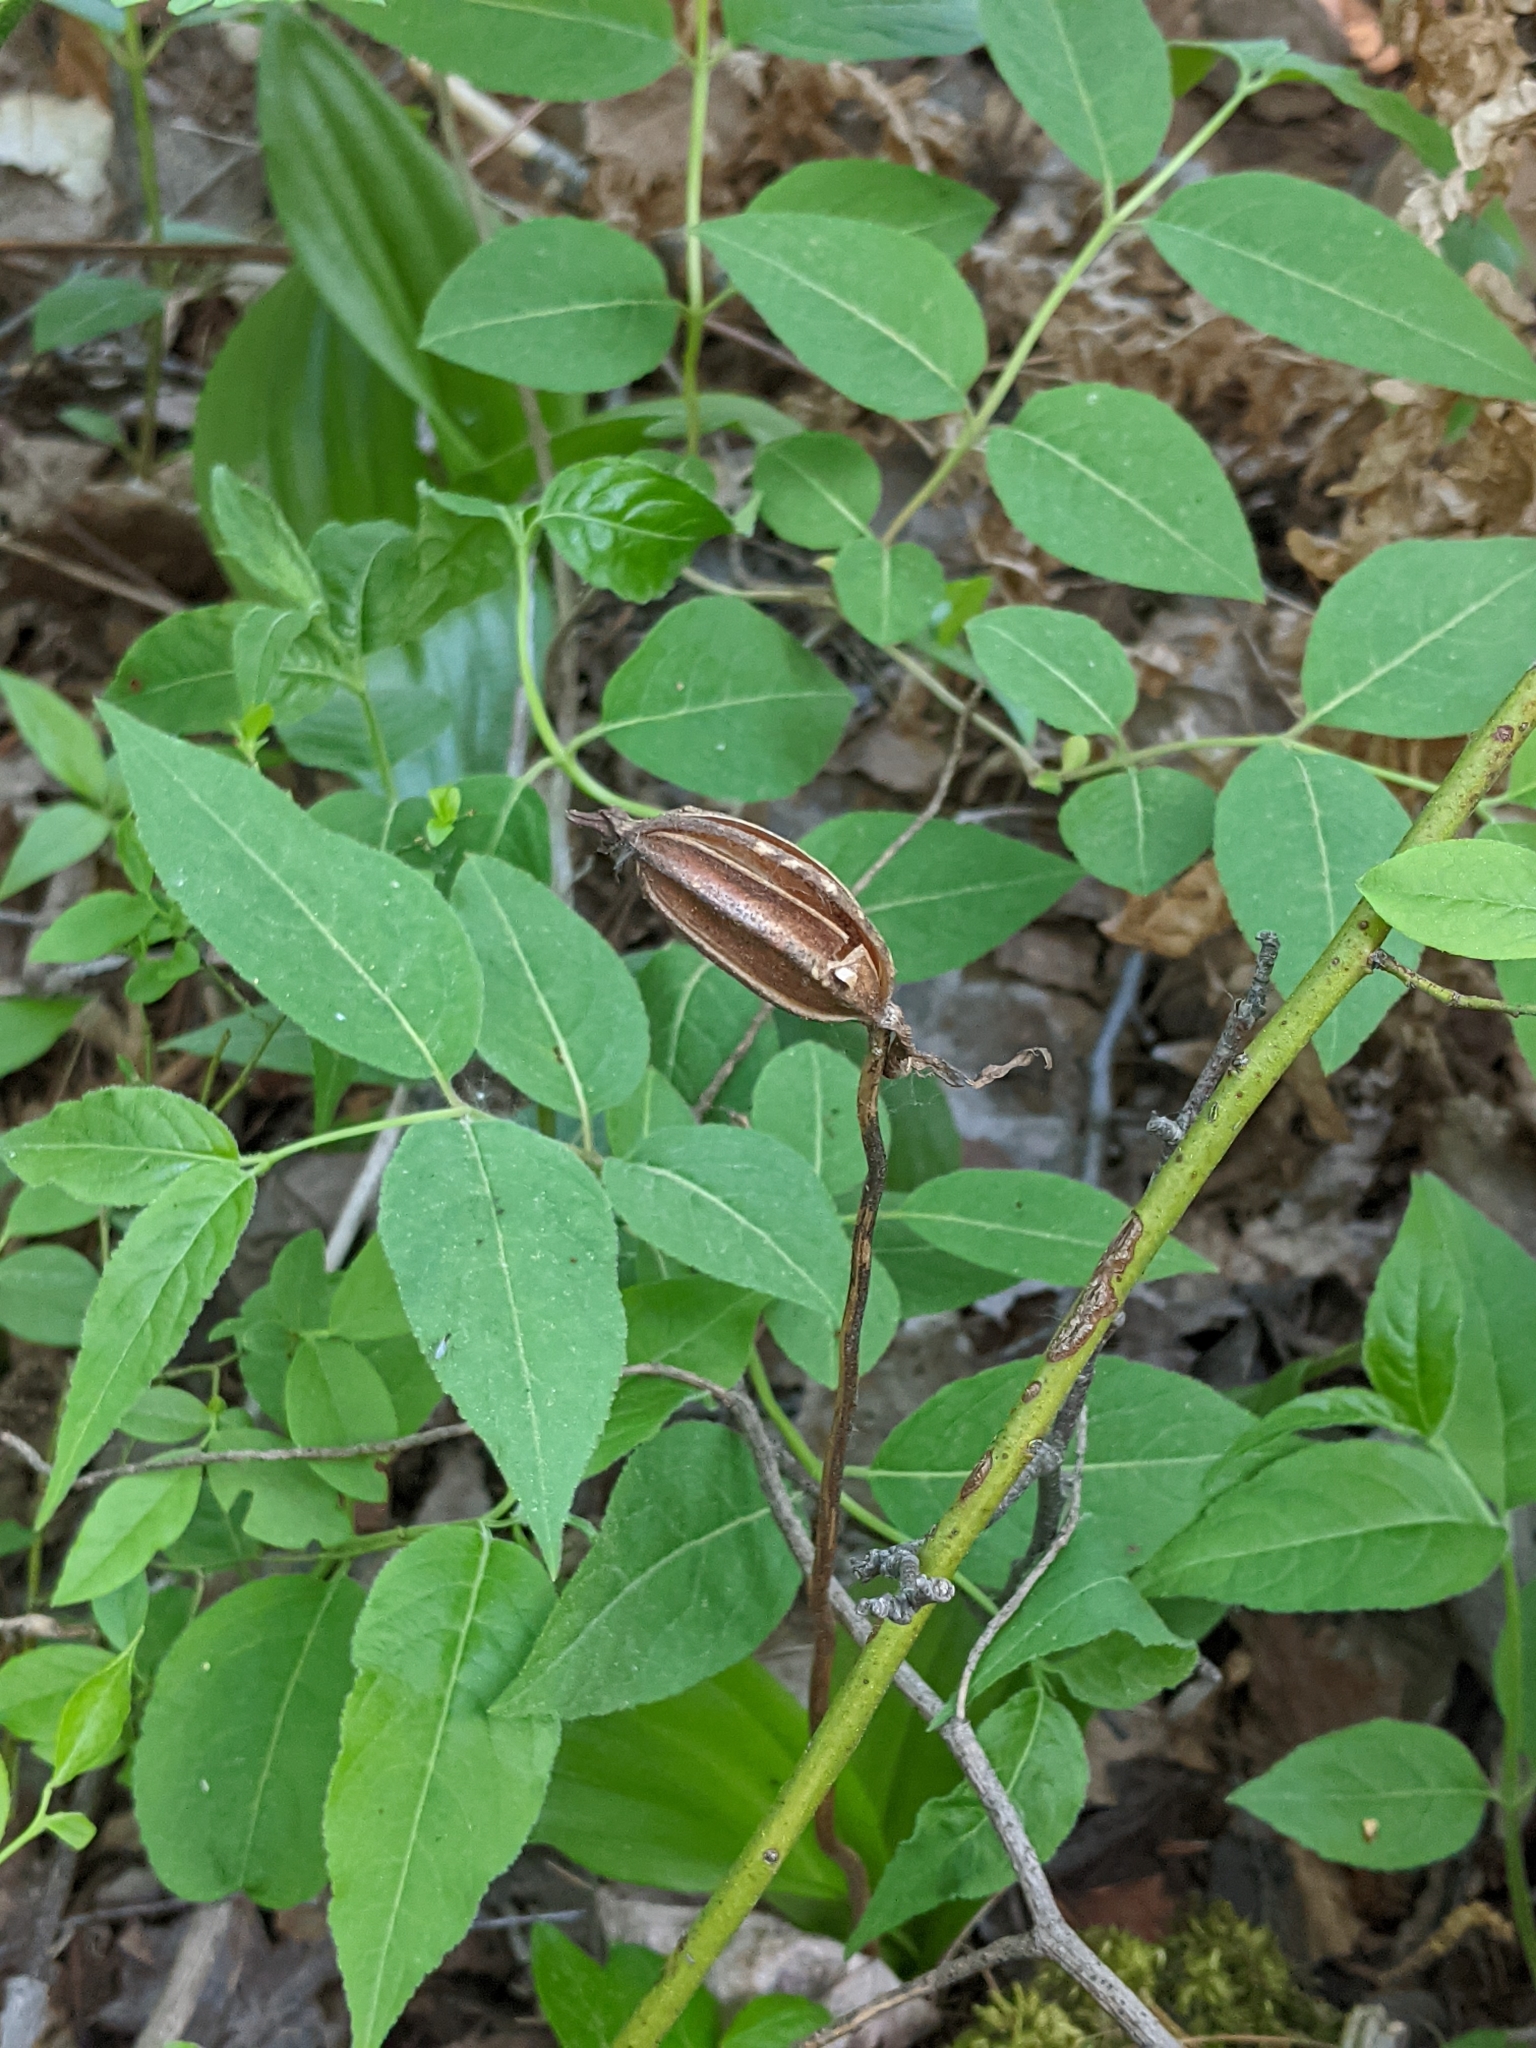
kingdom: Plantae
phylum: Tracheophyta
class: Liliopsida
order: Asparagales
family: Orchidaceae
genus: Cypripedium
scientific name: Cypripedium acaule
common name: Pink lady's-slipper
